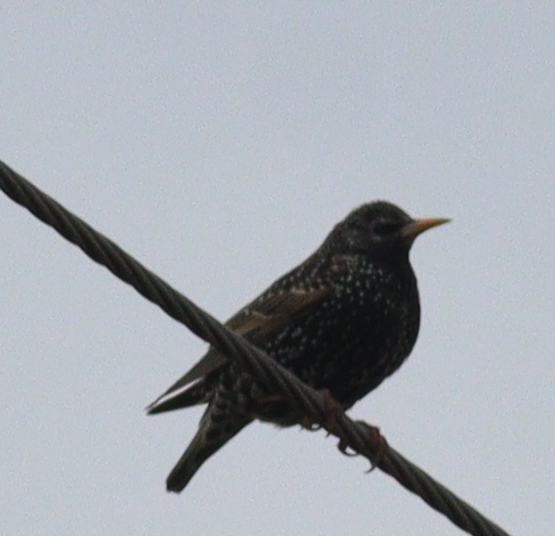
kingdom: Animalia
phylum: Chordata
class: Aves
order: Passeriformes
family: Sturnidae
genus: Sturnus
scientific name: Sturnus vulgaris
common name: Common starling
